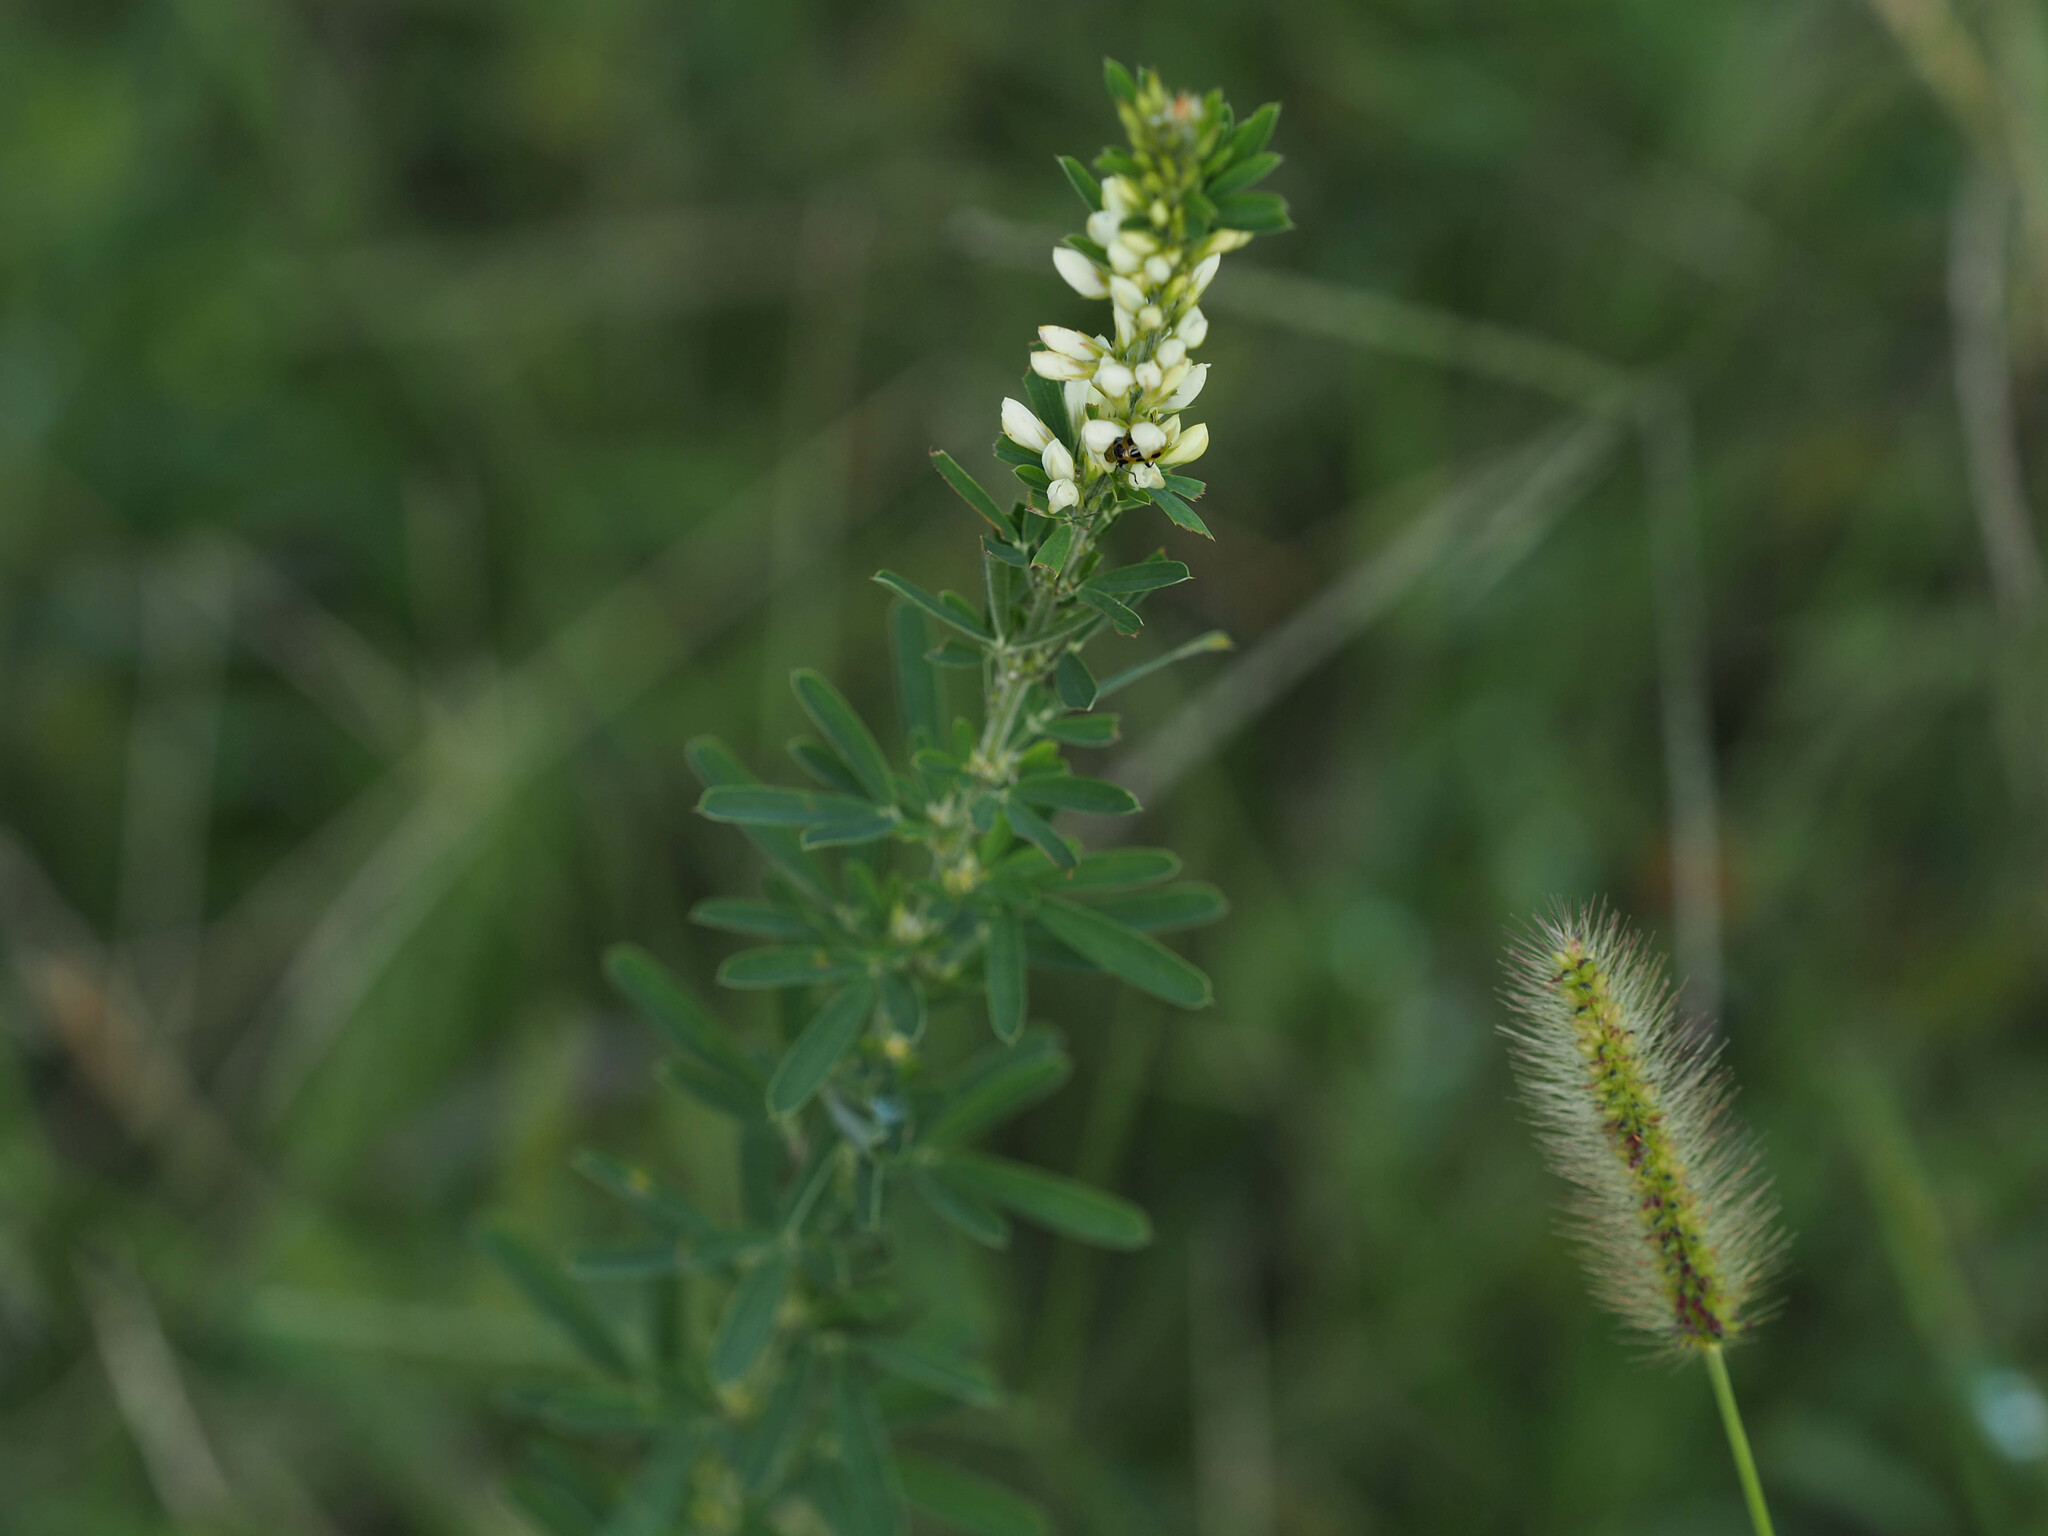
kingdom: Plantae
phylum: Tracheophyta
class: Magnoliopsida
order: Fabales
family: Fabaceae
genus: Lespedeza
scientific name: Lespedeza cuneata
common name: Chinese bush-clover
